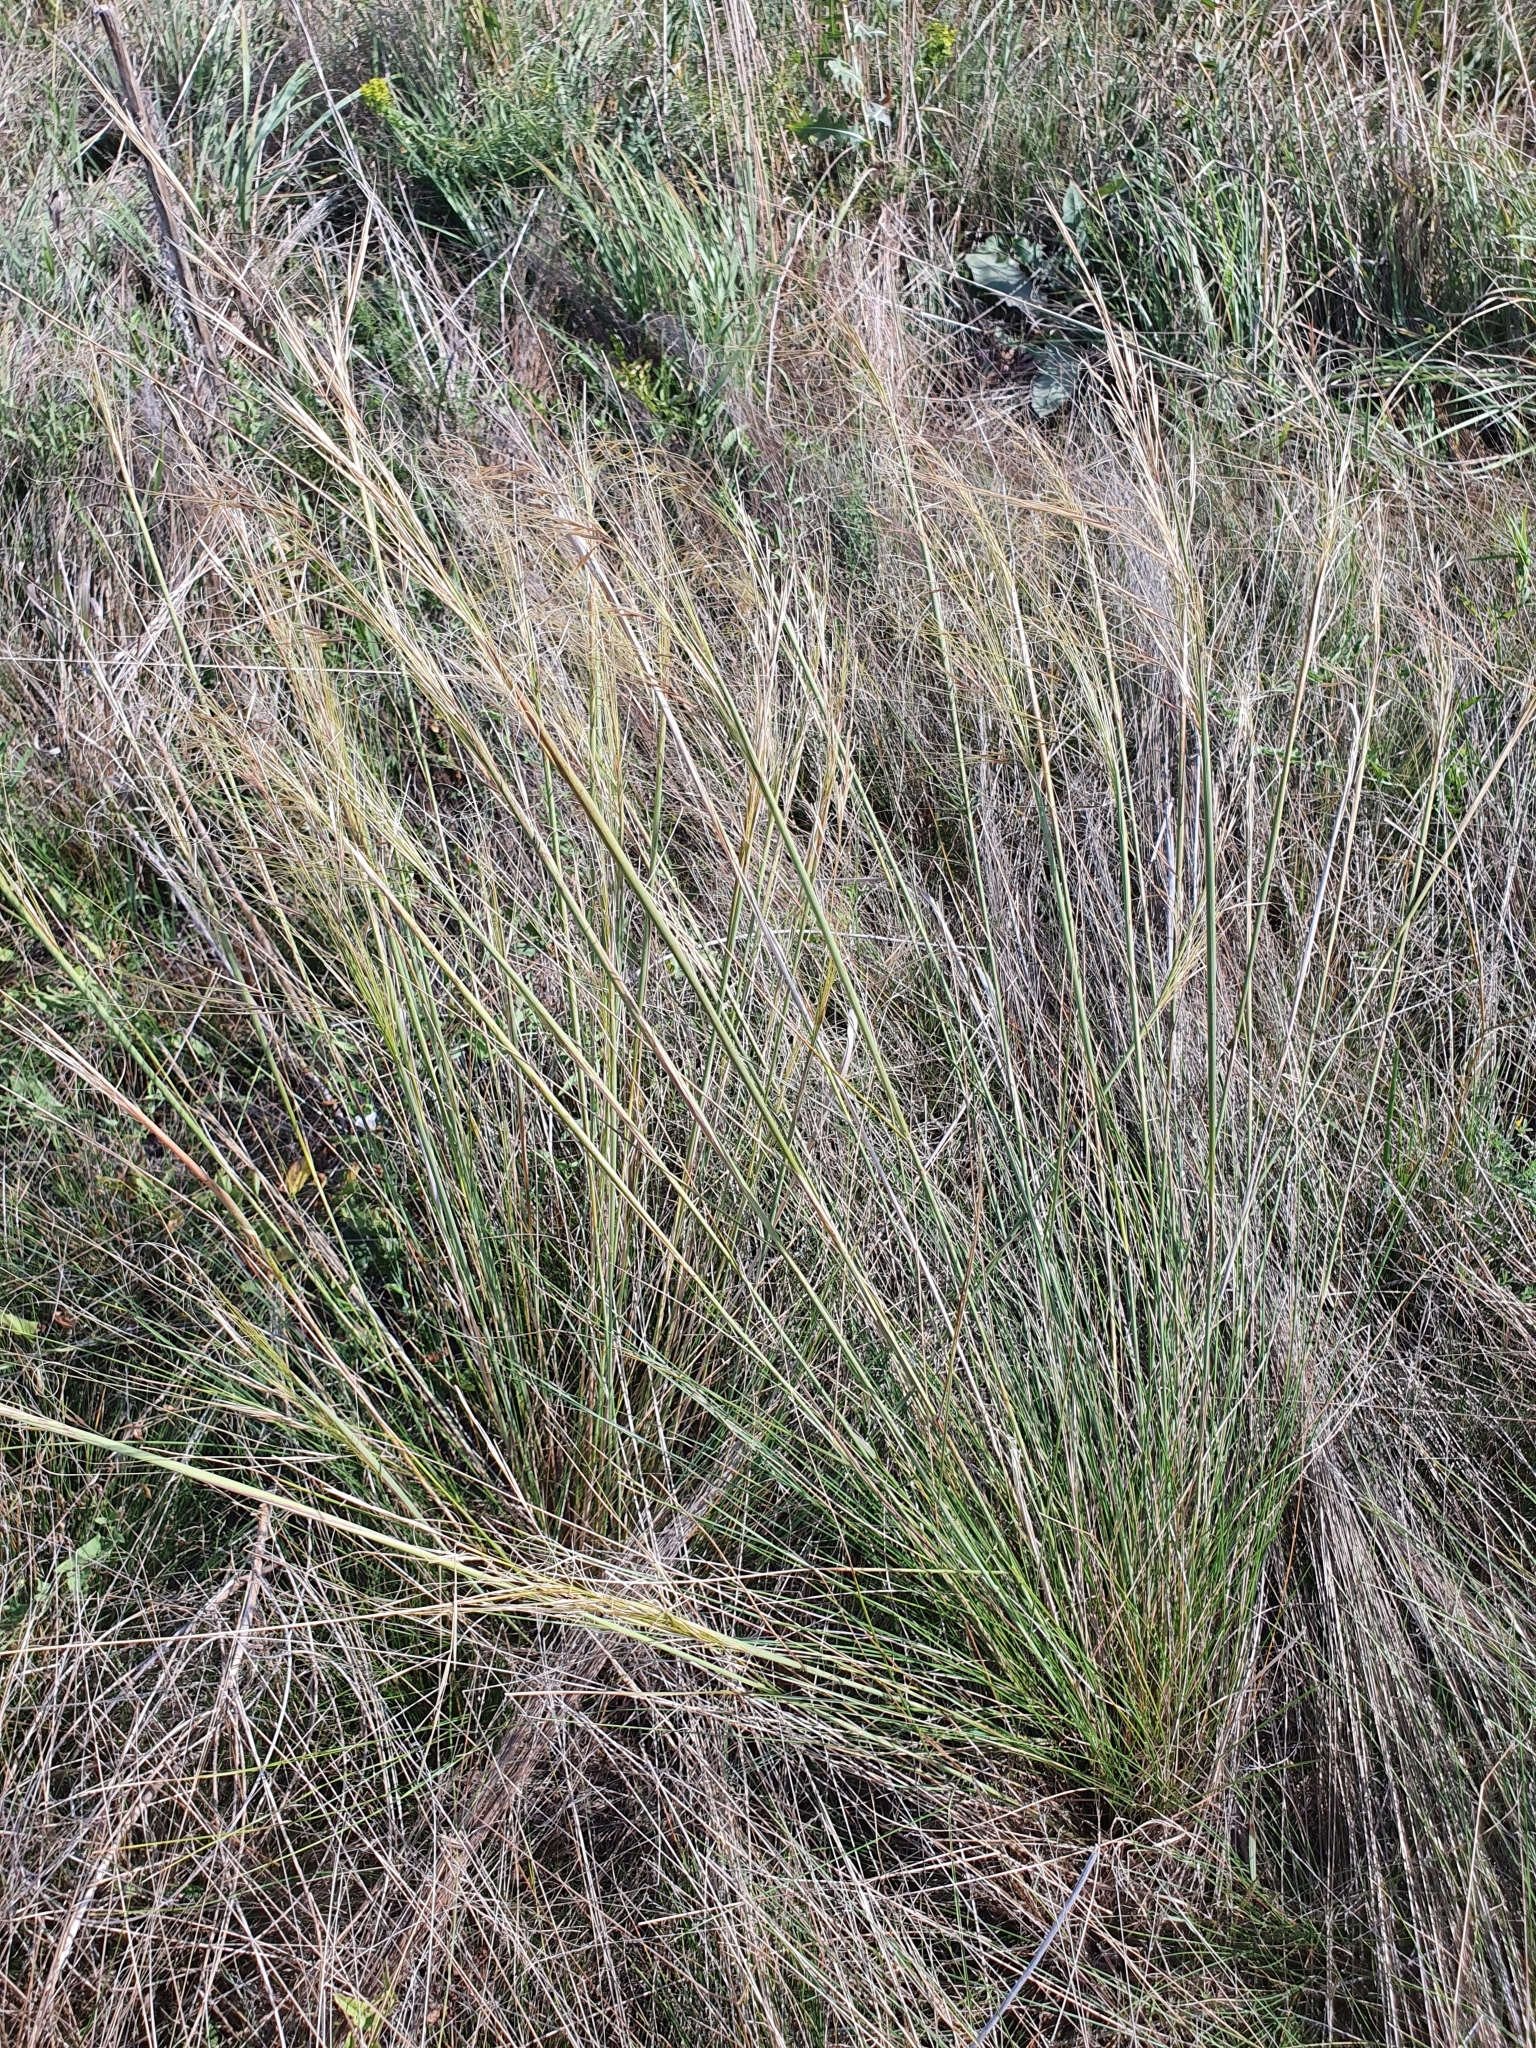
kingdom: Plantae
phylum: Tracheophyta
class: Liliopsida
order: Poales
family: Poaceae
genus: Stipa
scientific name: Stipa capillata
